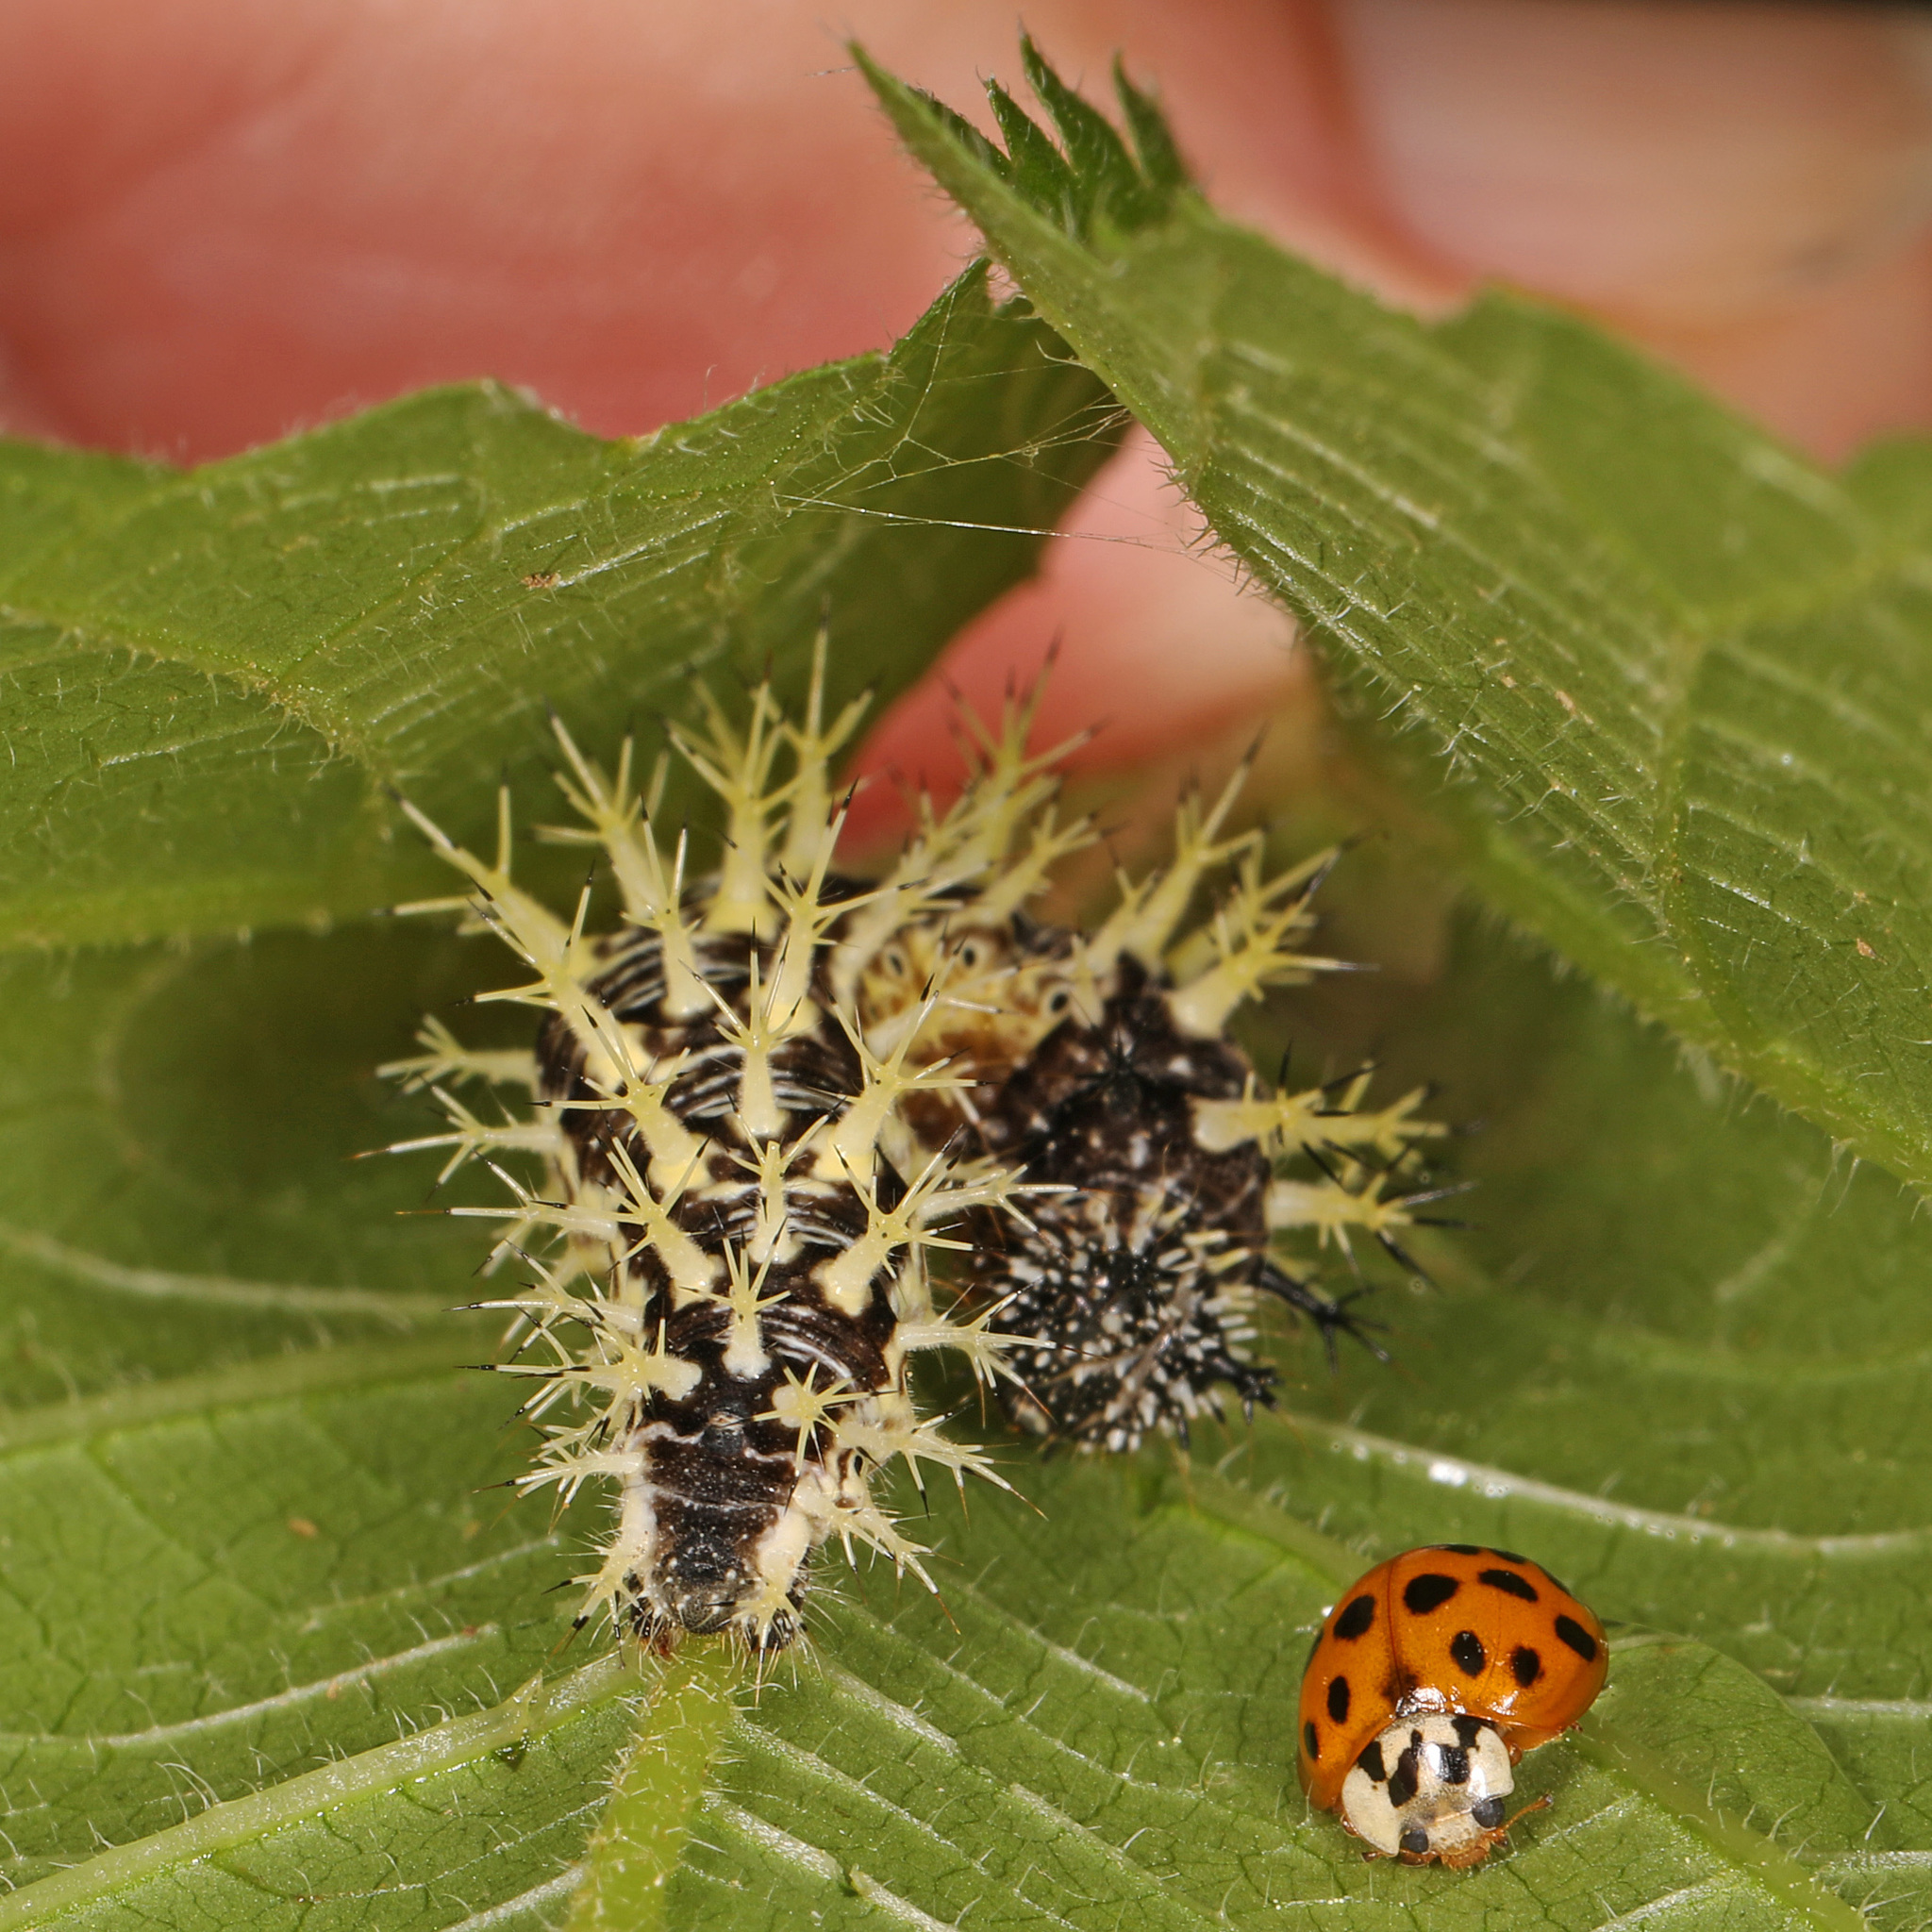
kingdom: Animalia
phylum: Arthropoda
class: Insecta
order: Coleoptera
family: Coccinellidae
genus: Harmonia
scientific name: Harmonia axyridis
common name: Harlequin ladybird
